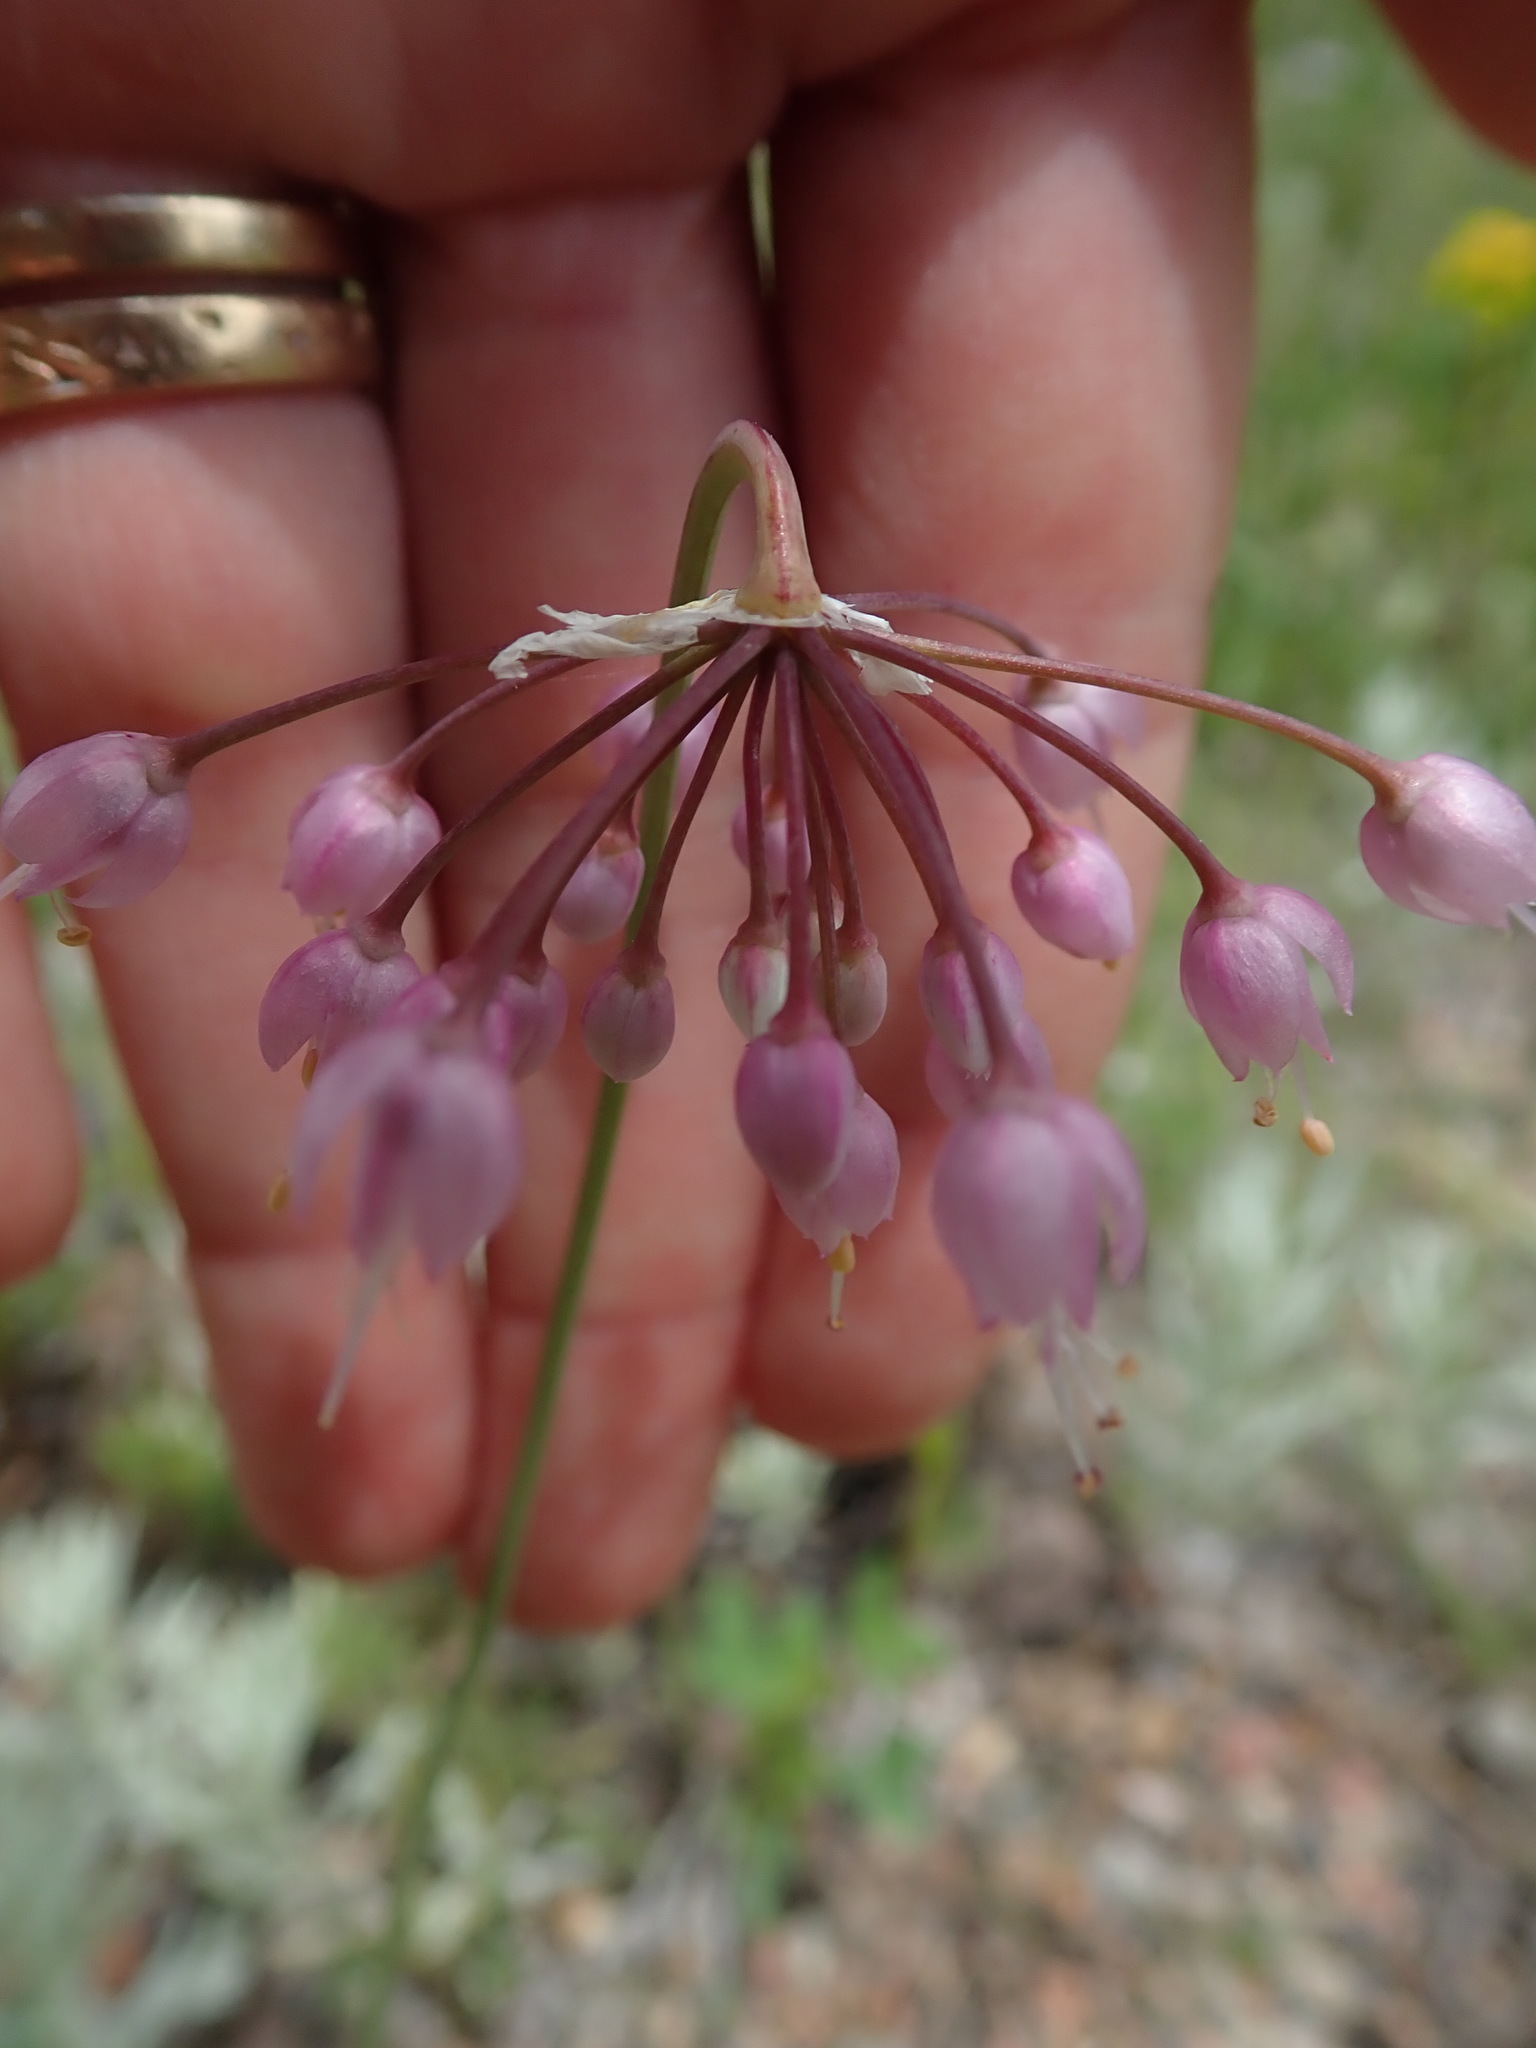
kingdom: Plantae
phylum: Tracheophyta
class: Liliopsida
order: Asparagales
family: Amaryllidaceae
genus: Allium
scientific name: Allium cernuum
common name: Nodding onion
